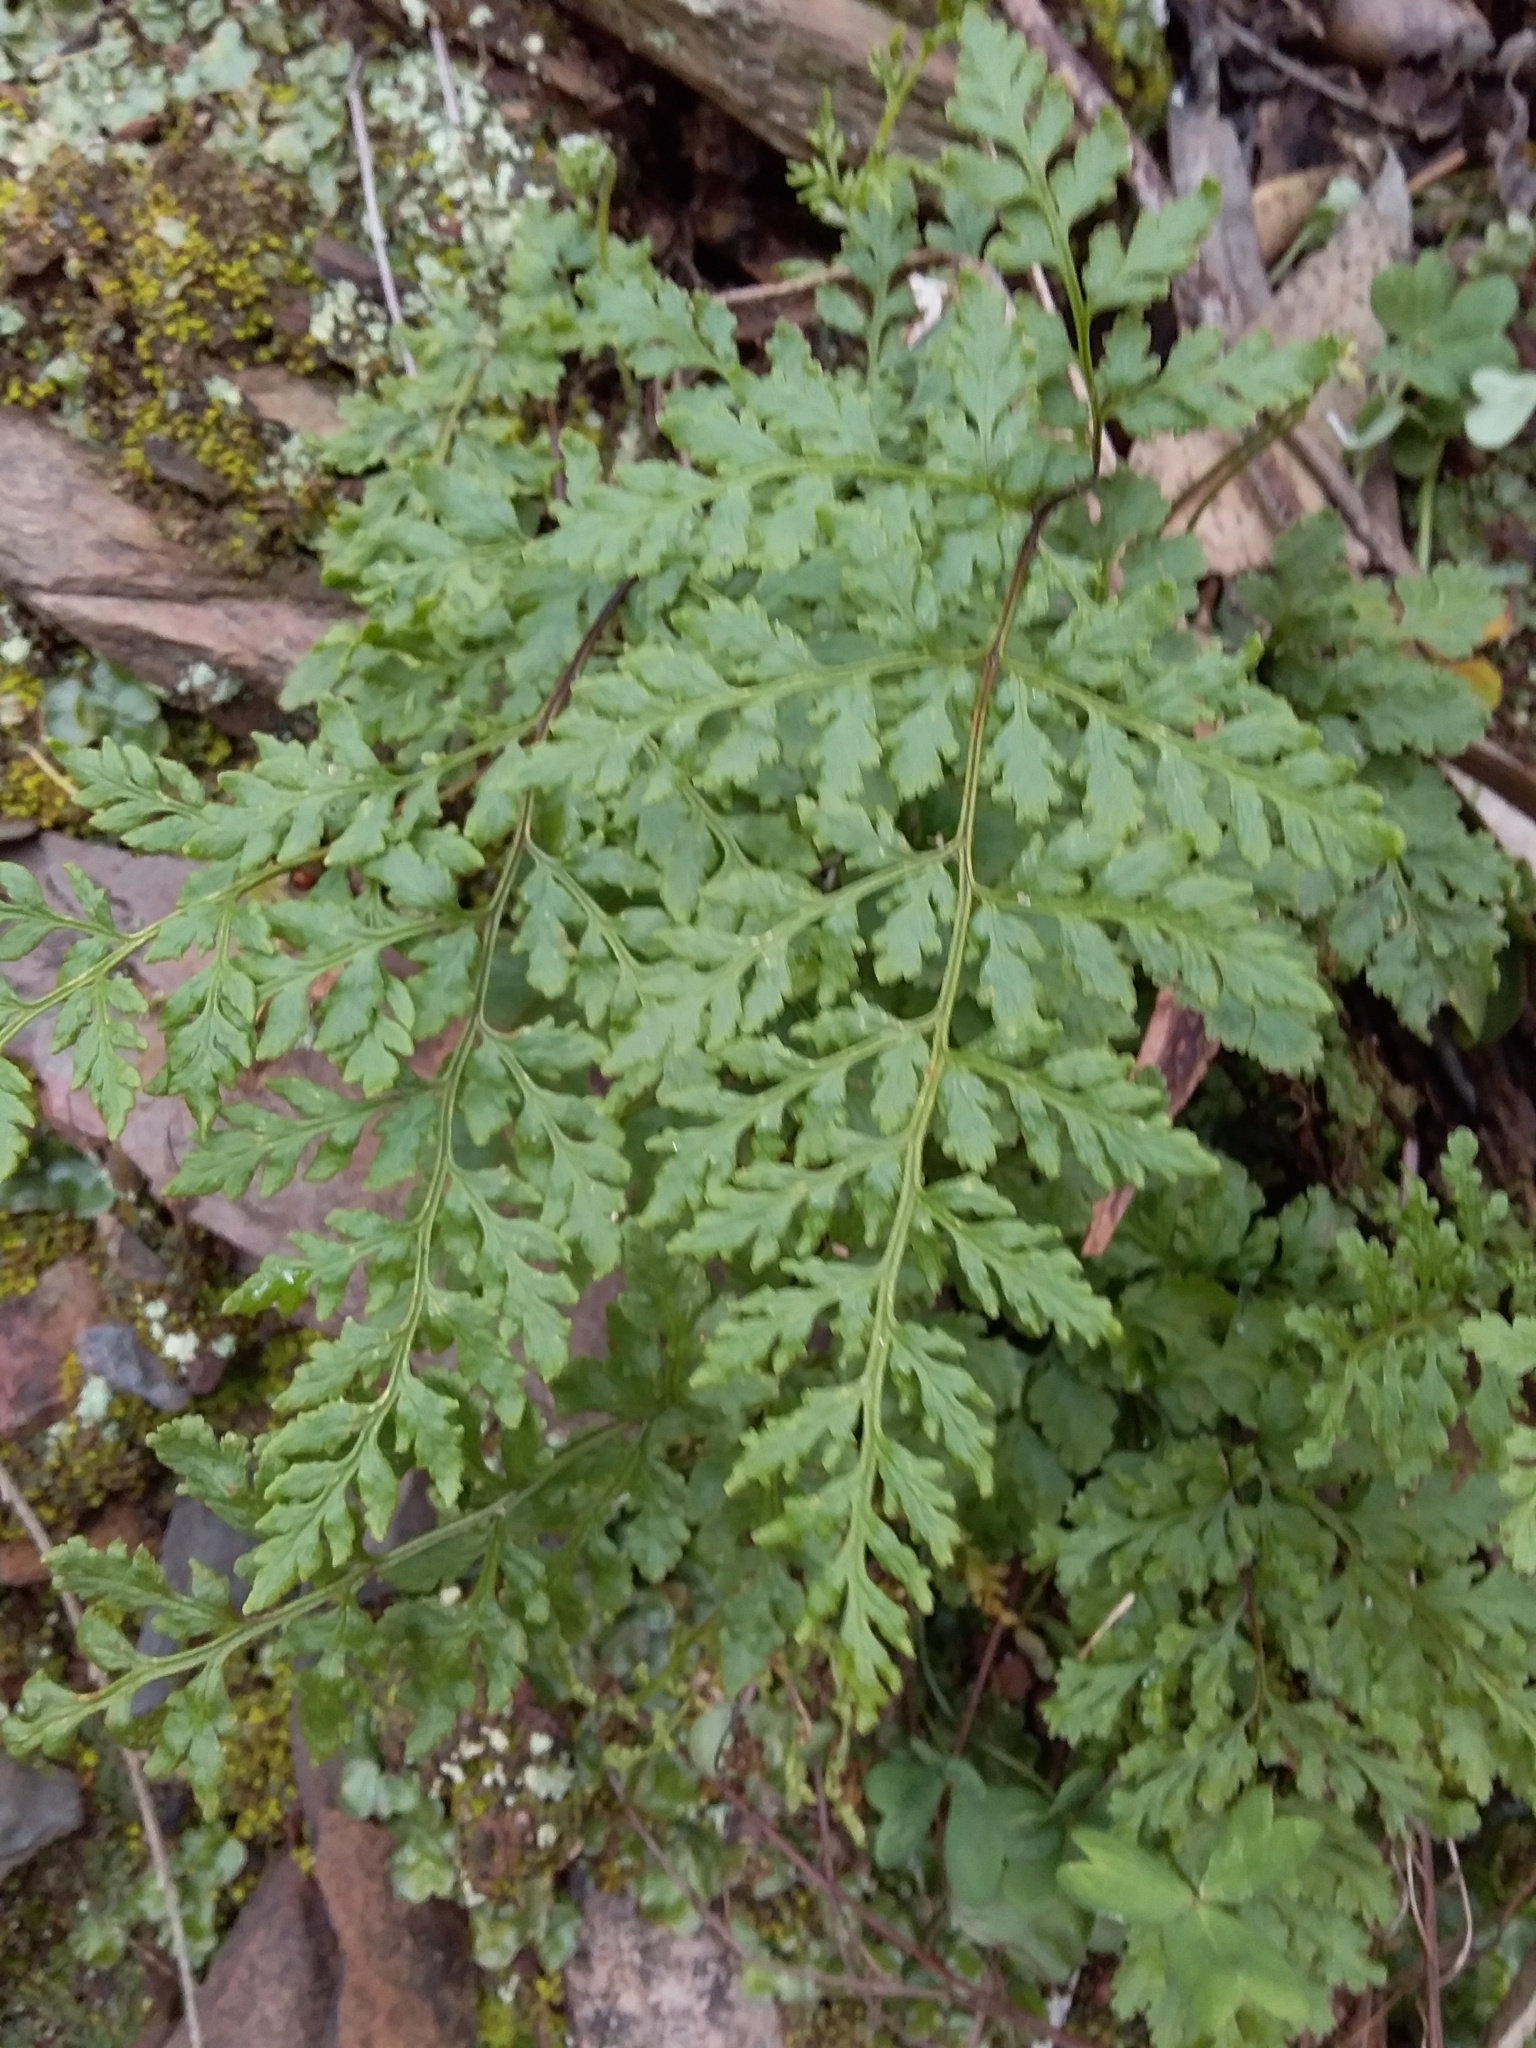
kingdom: Plantae
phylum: Tracheophyta
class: Polypodiopsida
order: Polypodiales
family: Pteridaceae
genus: Cheilanthes
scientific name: Cheilanthes austrotenuifolia
